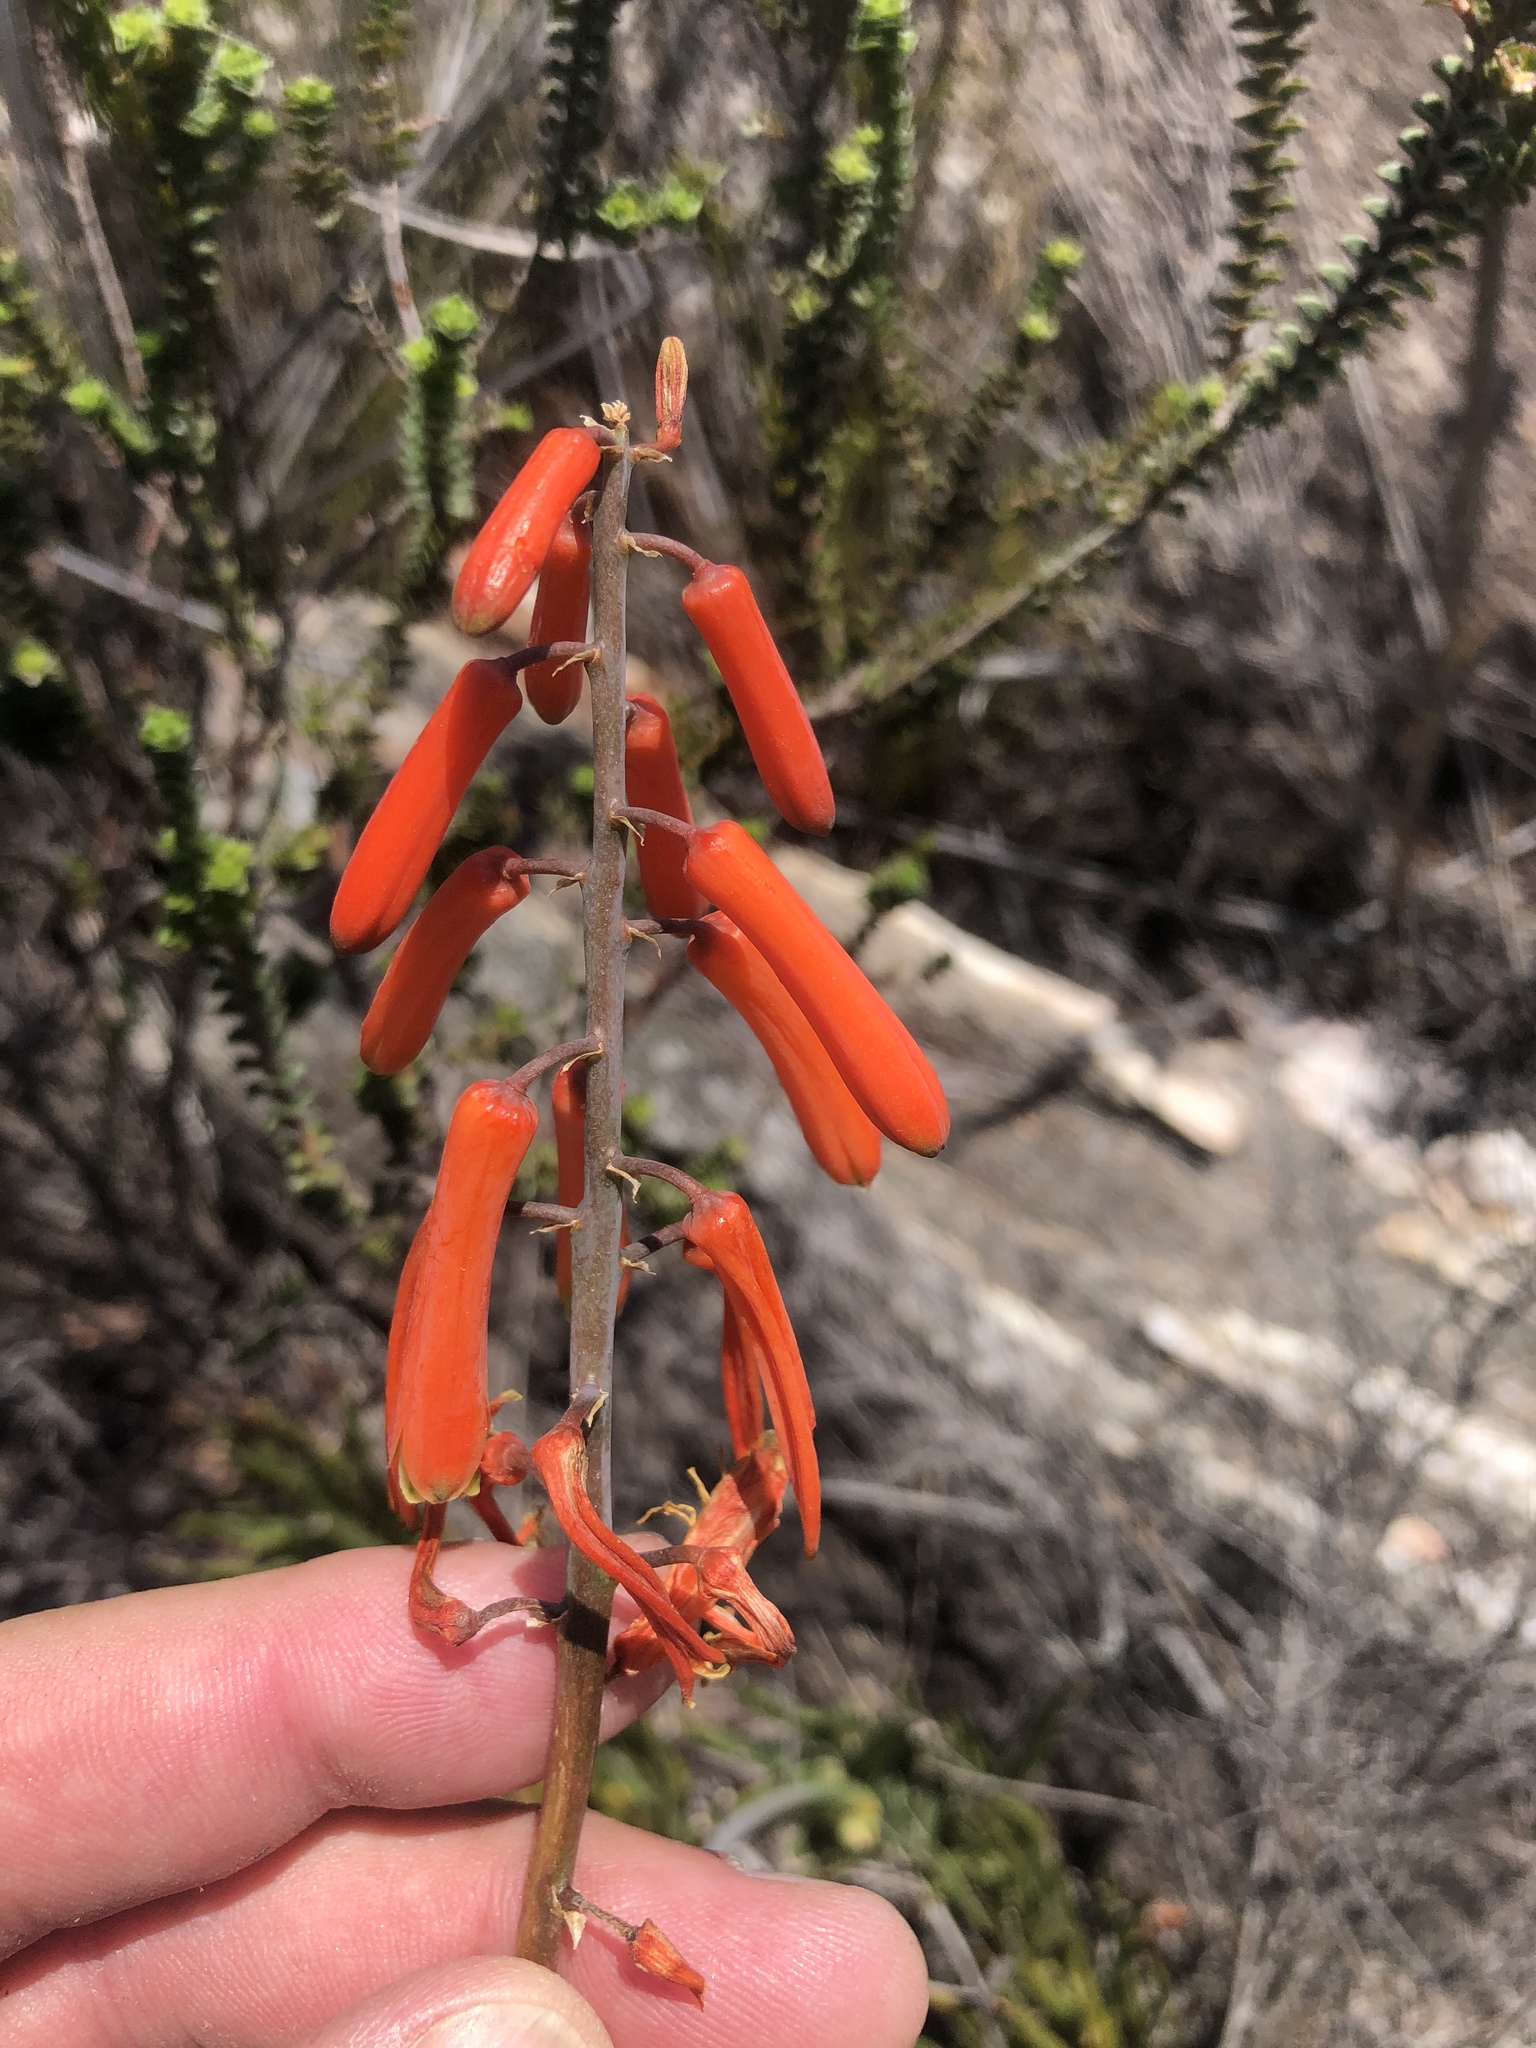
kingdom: Plantae
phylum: Tracheophyta
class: Liliopsida
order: Asparagales
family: Asphodelaceae
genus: Aloiampelos
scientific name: Aloiampelos decumbens
